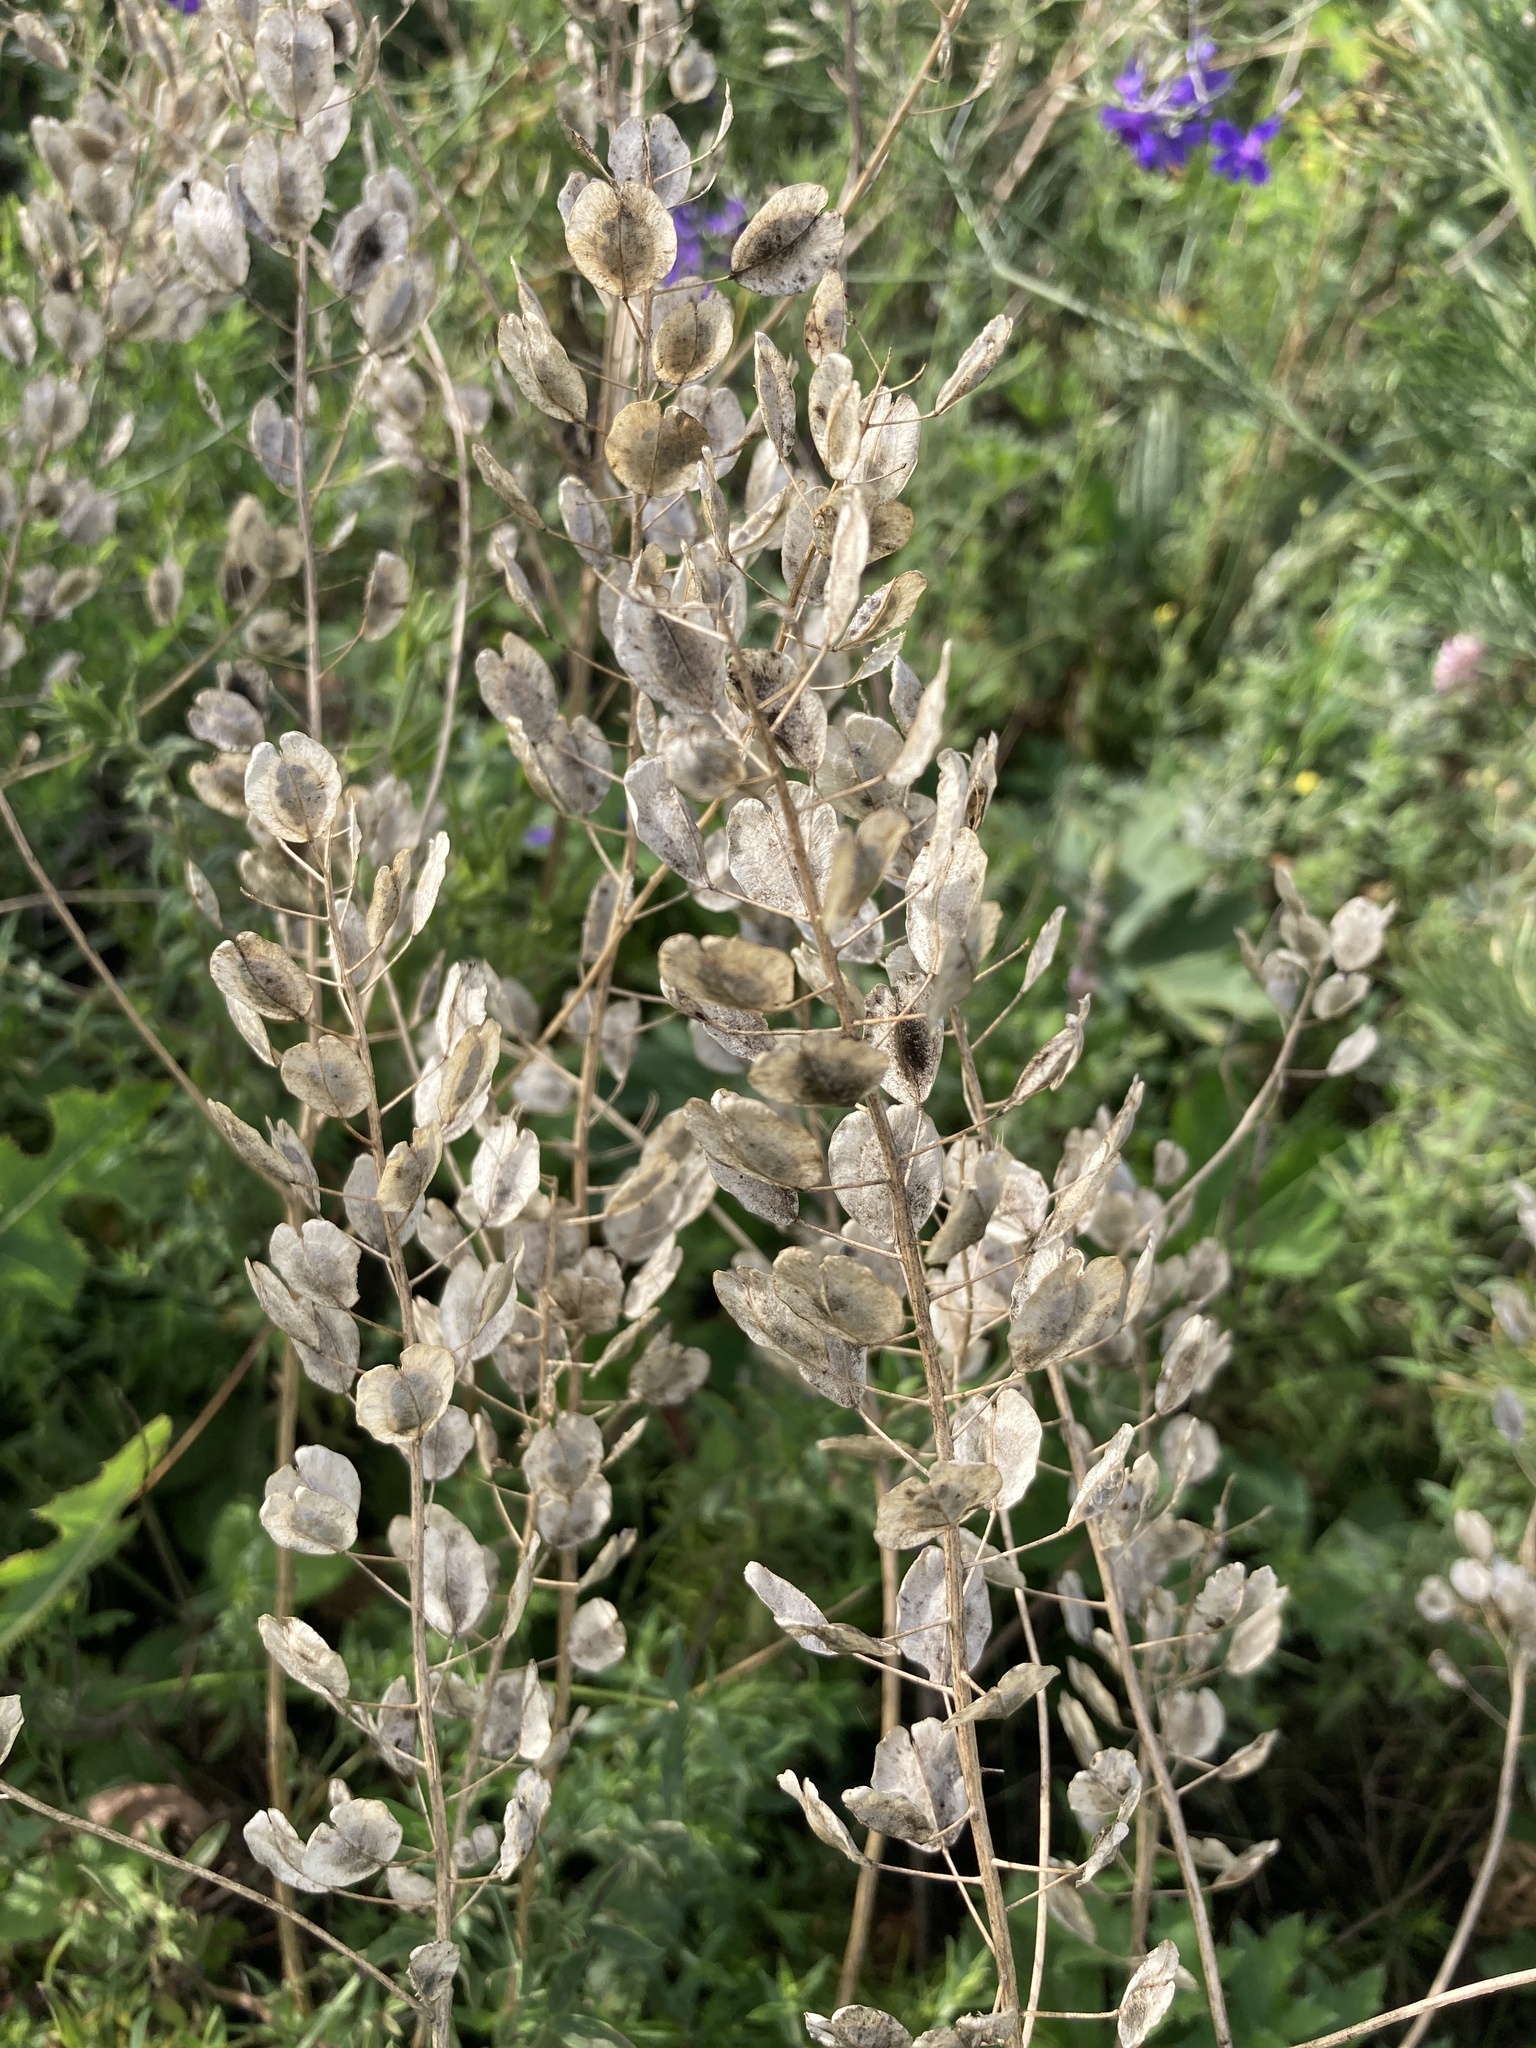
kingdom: Plantae
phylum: Tracheophyta
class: Magnoliopsida
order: Brassicales
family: Brassicaceae
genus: Thlaspi
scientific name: Thlaspi arvense
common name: Field pennycress
